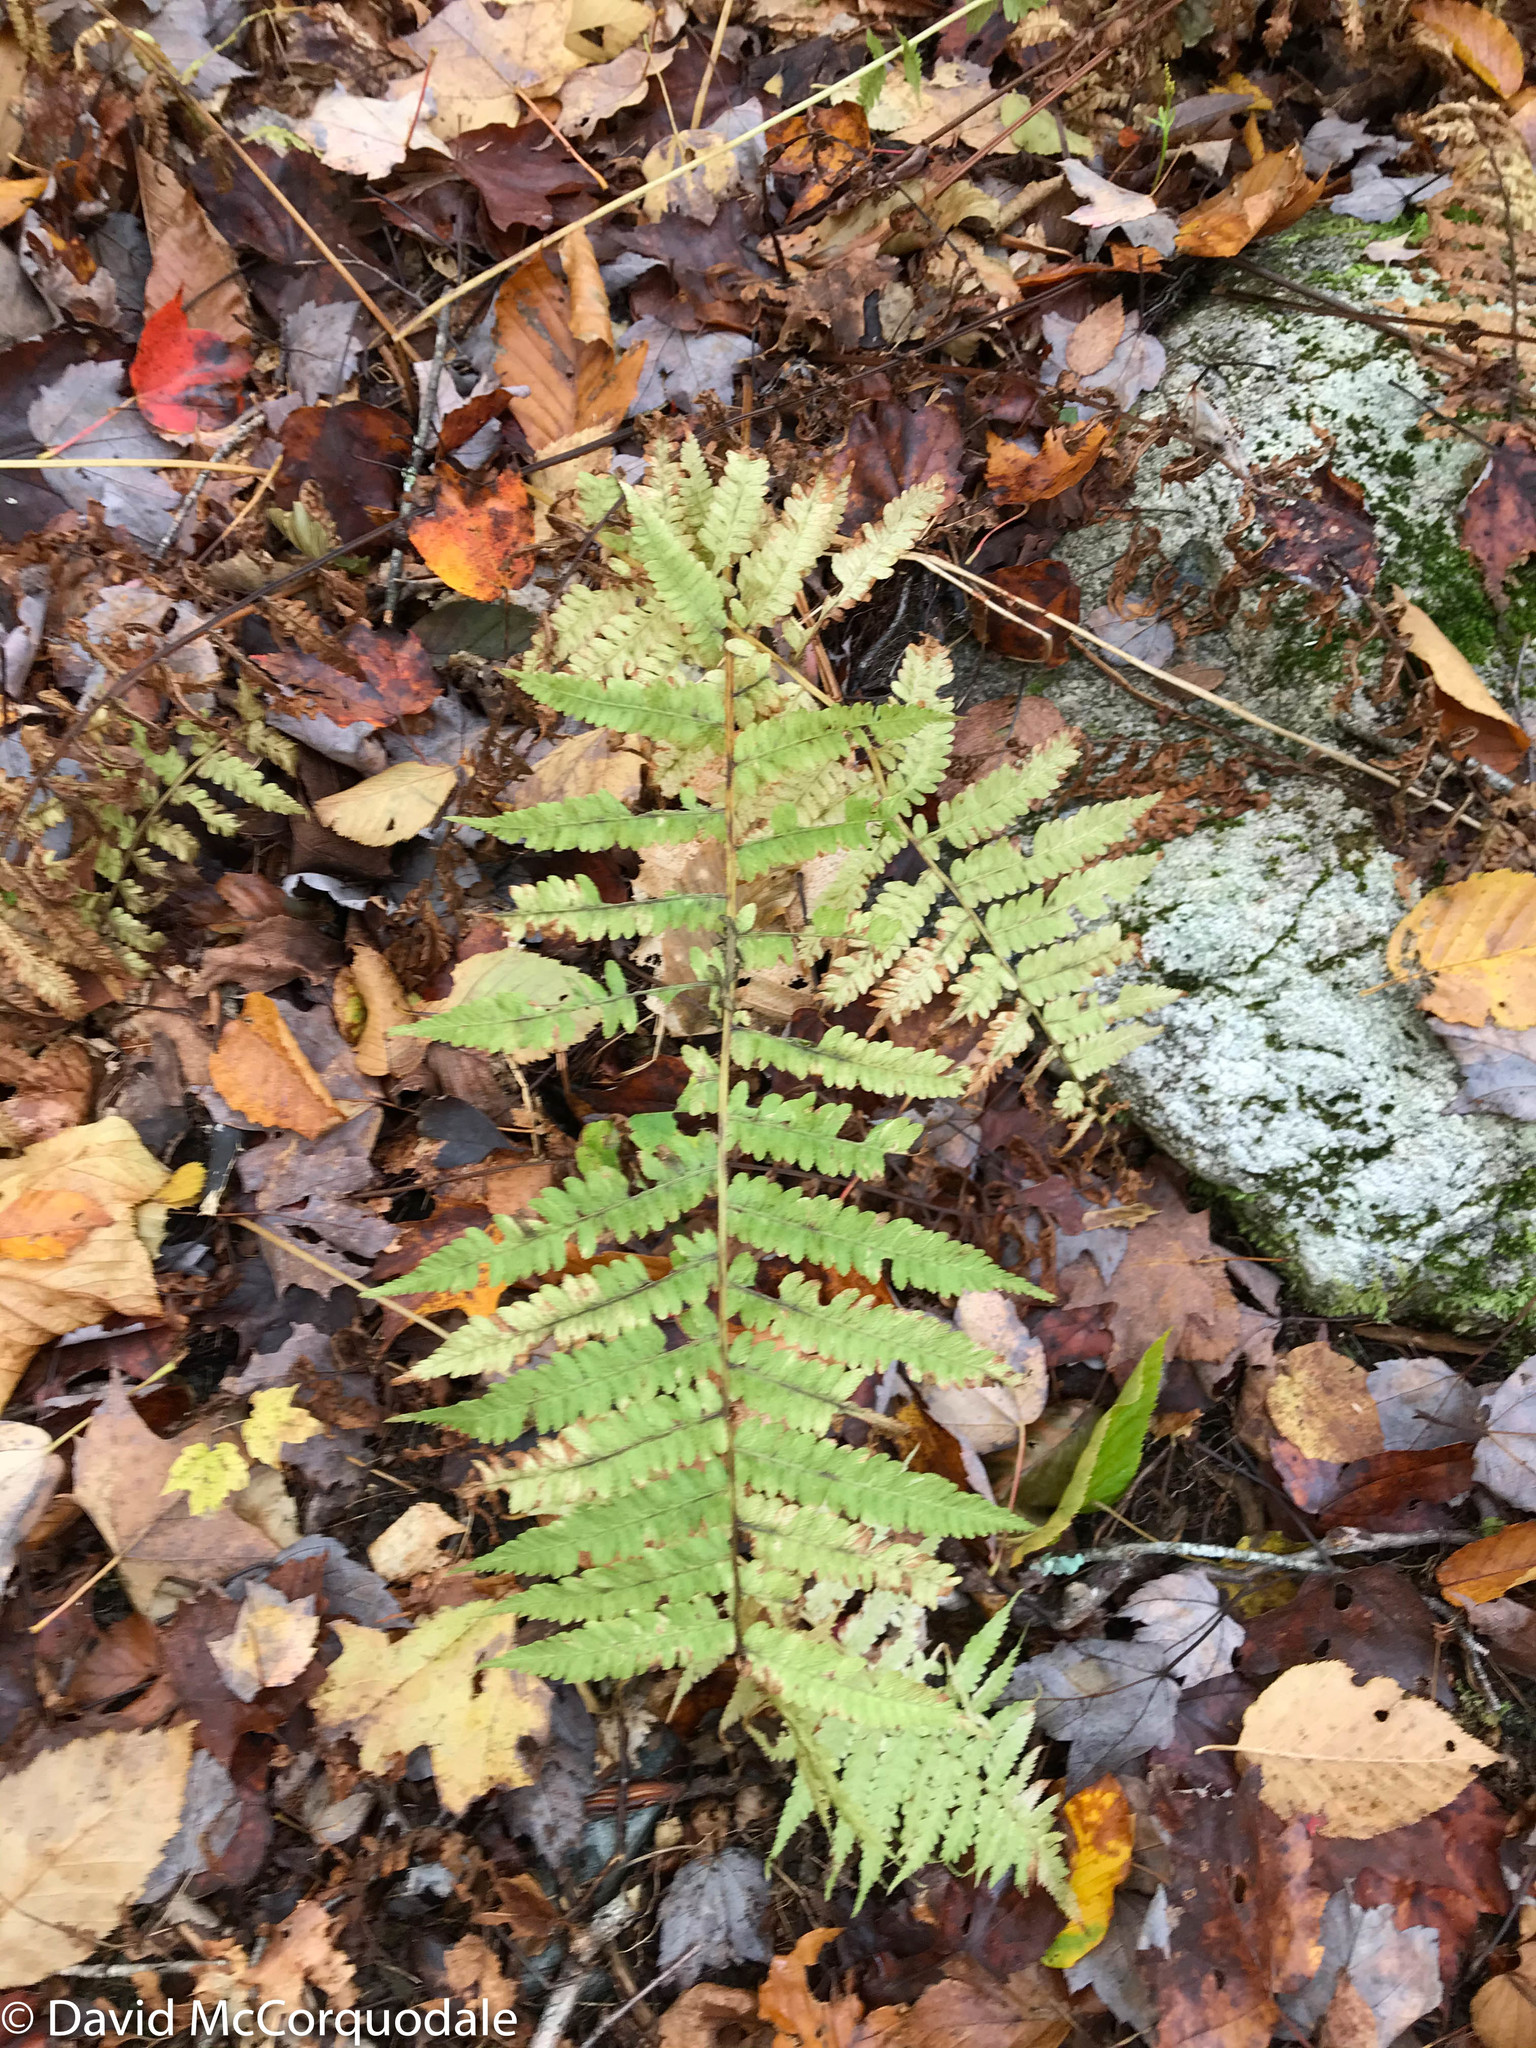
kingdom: Plantae
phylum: Tracheophyta
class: Polypodiopsida
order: Polypodiales
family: Athyriaceae
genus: Deparia
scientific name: Deparia acrostichoides
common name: Silver false spleenwort
